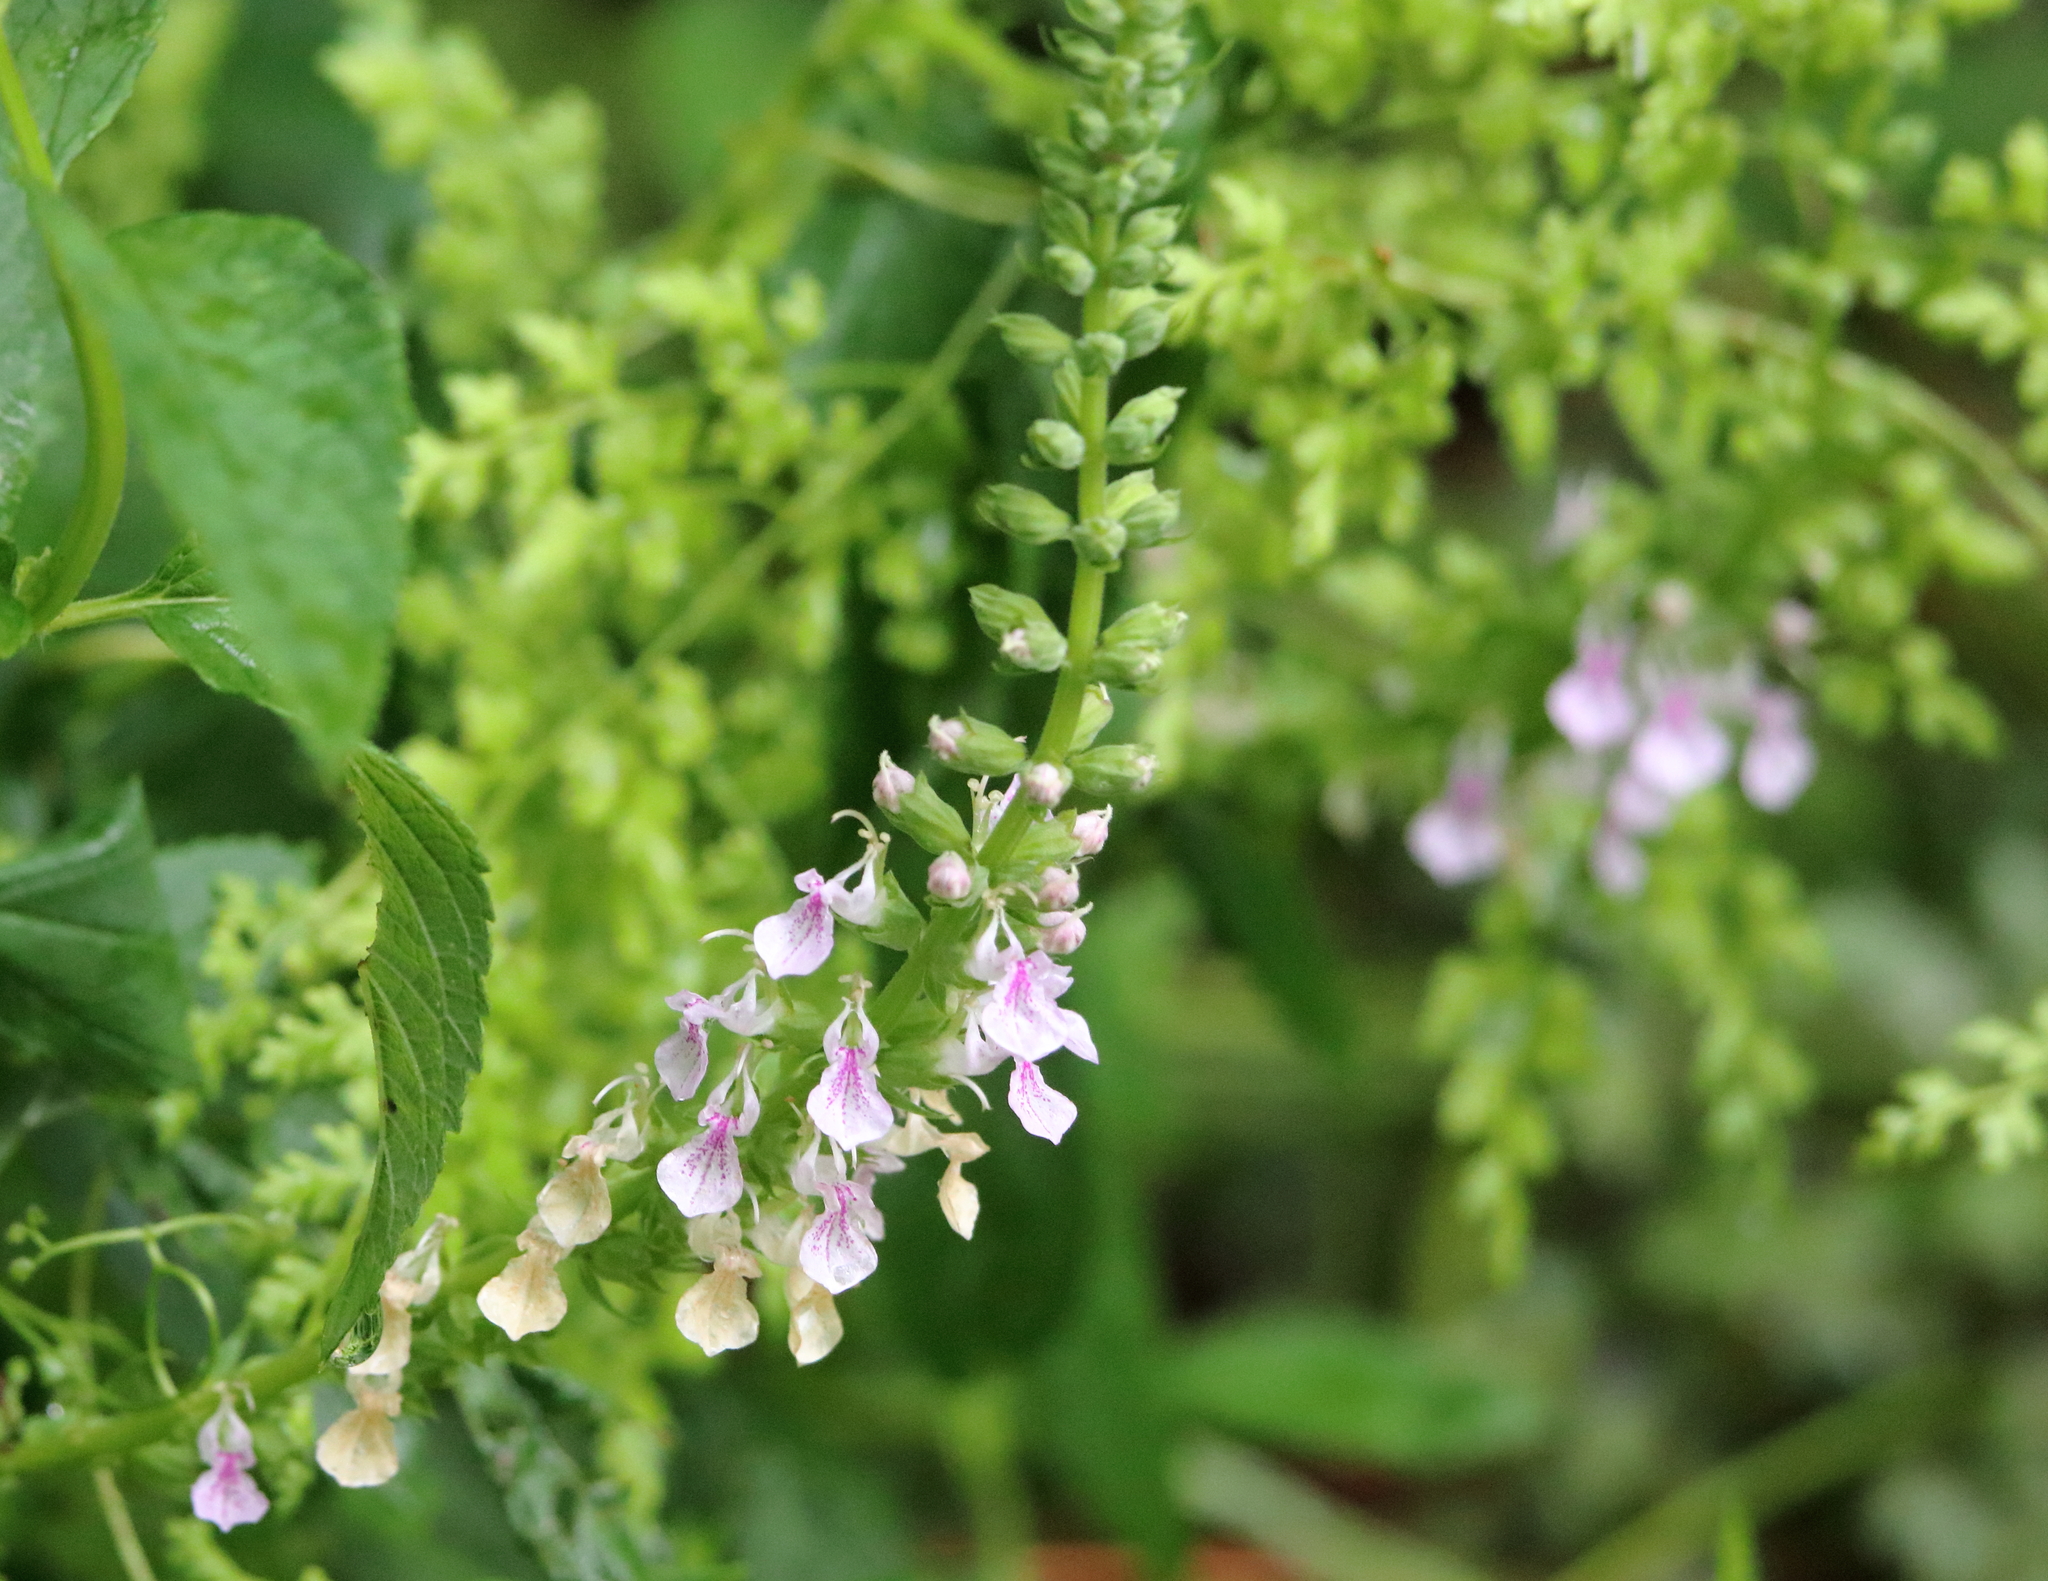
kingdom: Plantae
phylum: Tracheophyta
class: Magnoliopsida
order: Lamiales
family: Lamiaceae
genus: Teucrium
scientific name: Teucrium canadense
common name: American germander
